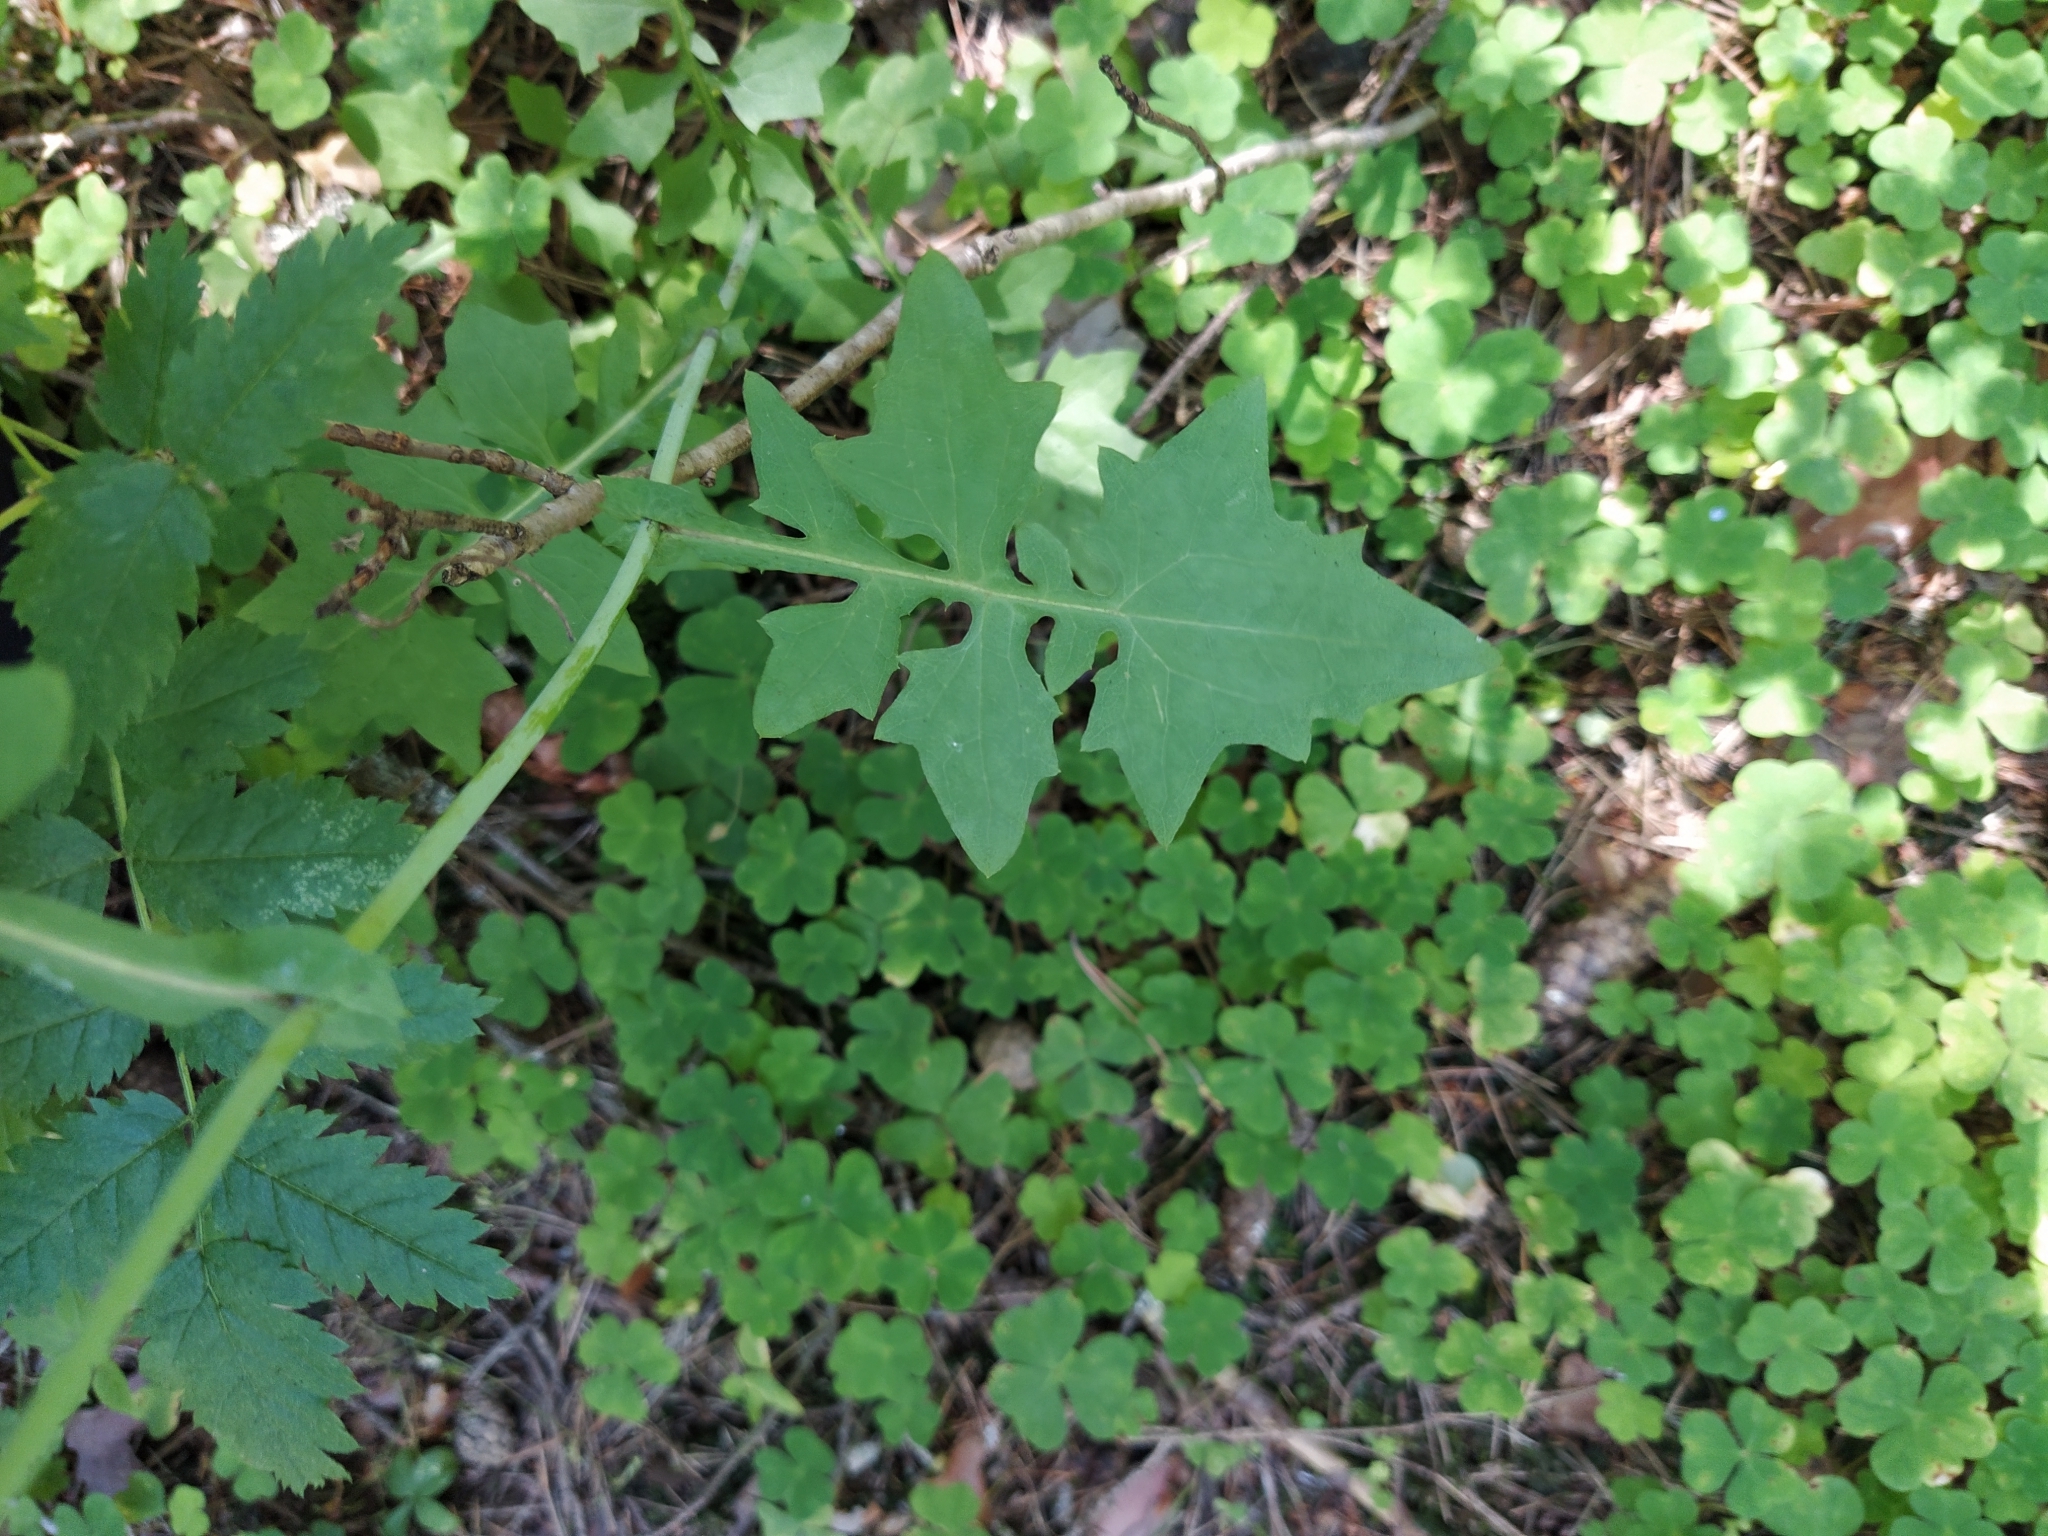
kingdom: Plantae
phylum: Tracheophyta
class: Magnoliopsida
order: Asterales
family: Asteraceae
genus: Mycelis
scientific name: Mycelis muralis
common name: Wall lettuce
